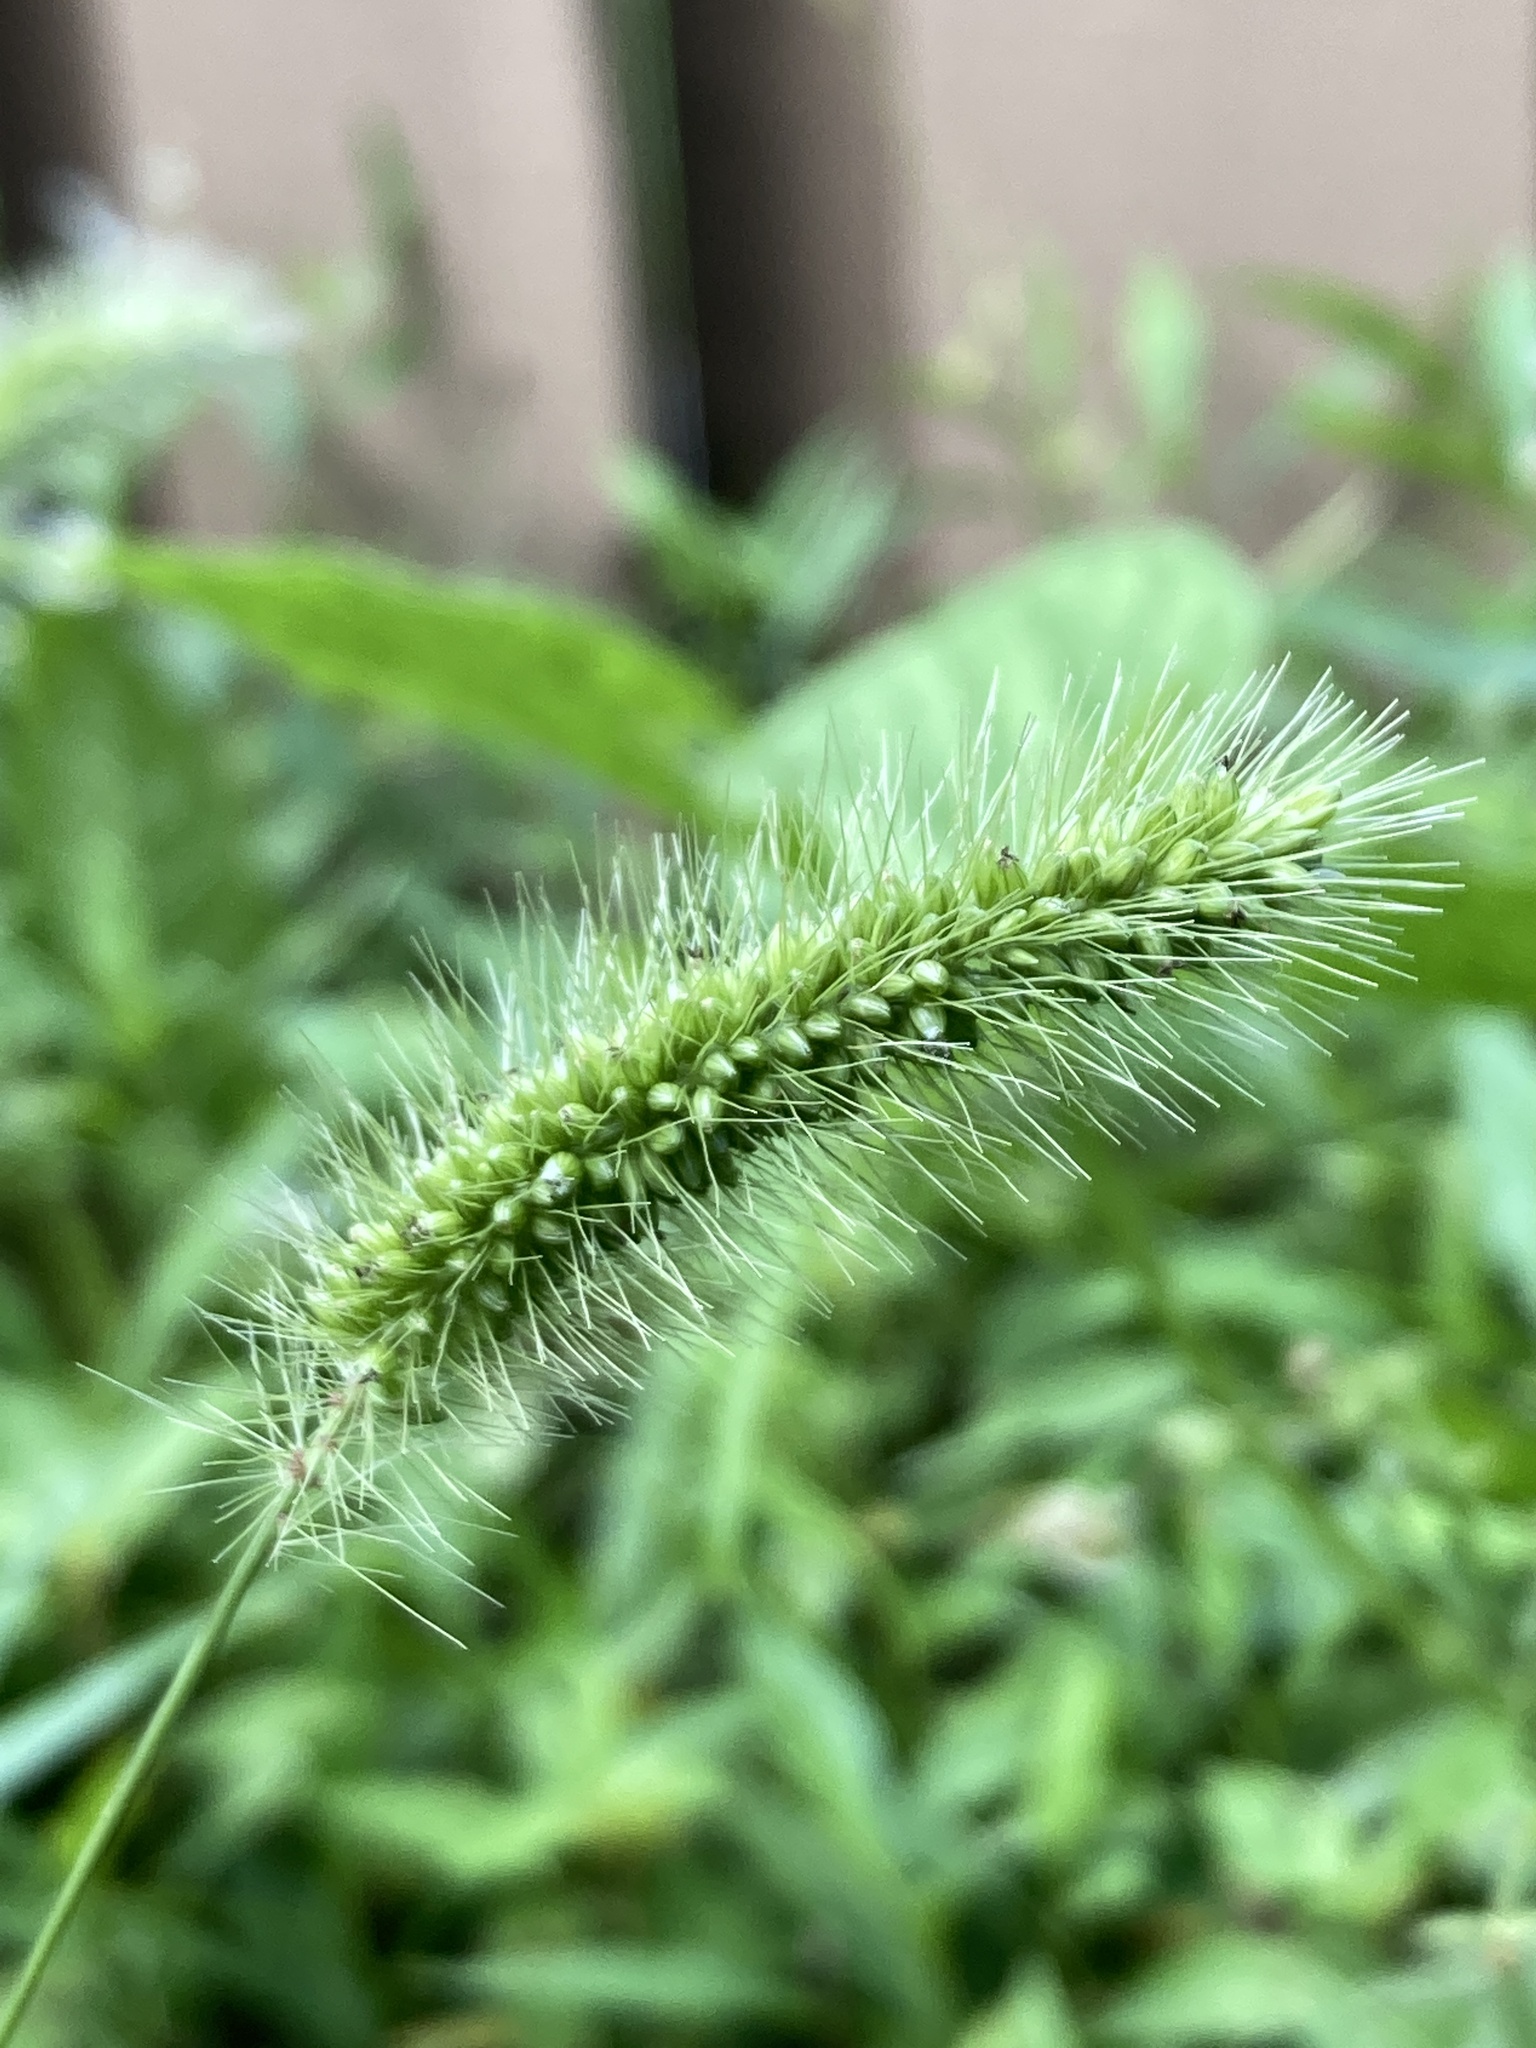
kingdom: Plantae
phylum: Tracheophyta
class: Liliopsida
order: Poales
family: Poaceae
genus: Setaria
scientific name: Setaria viridis
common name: Green bristlegrass
